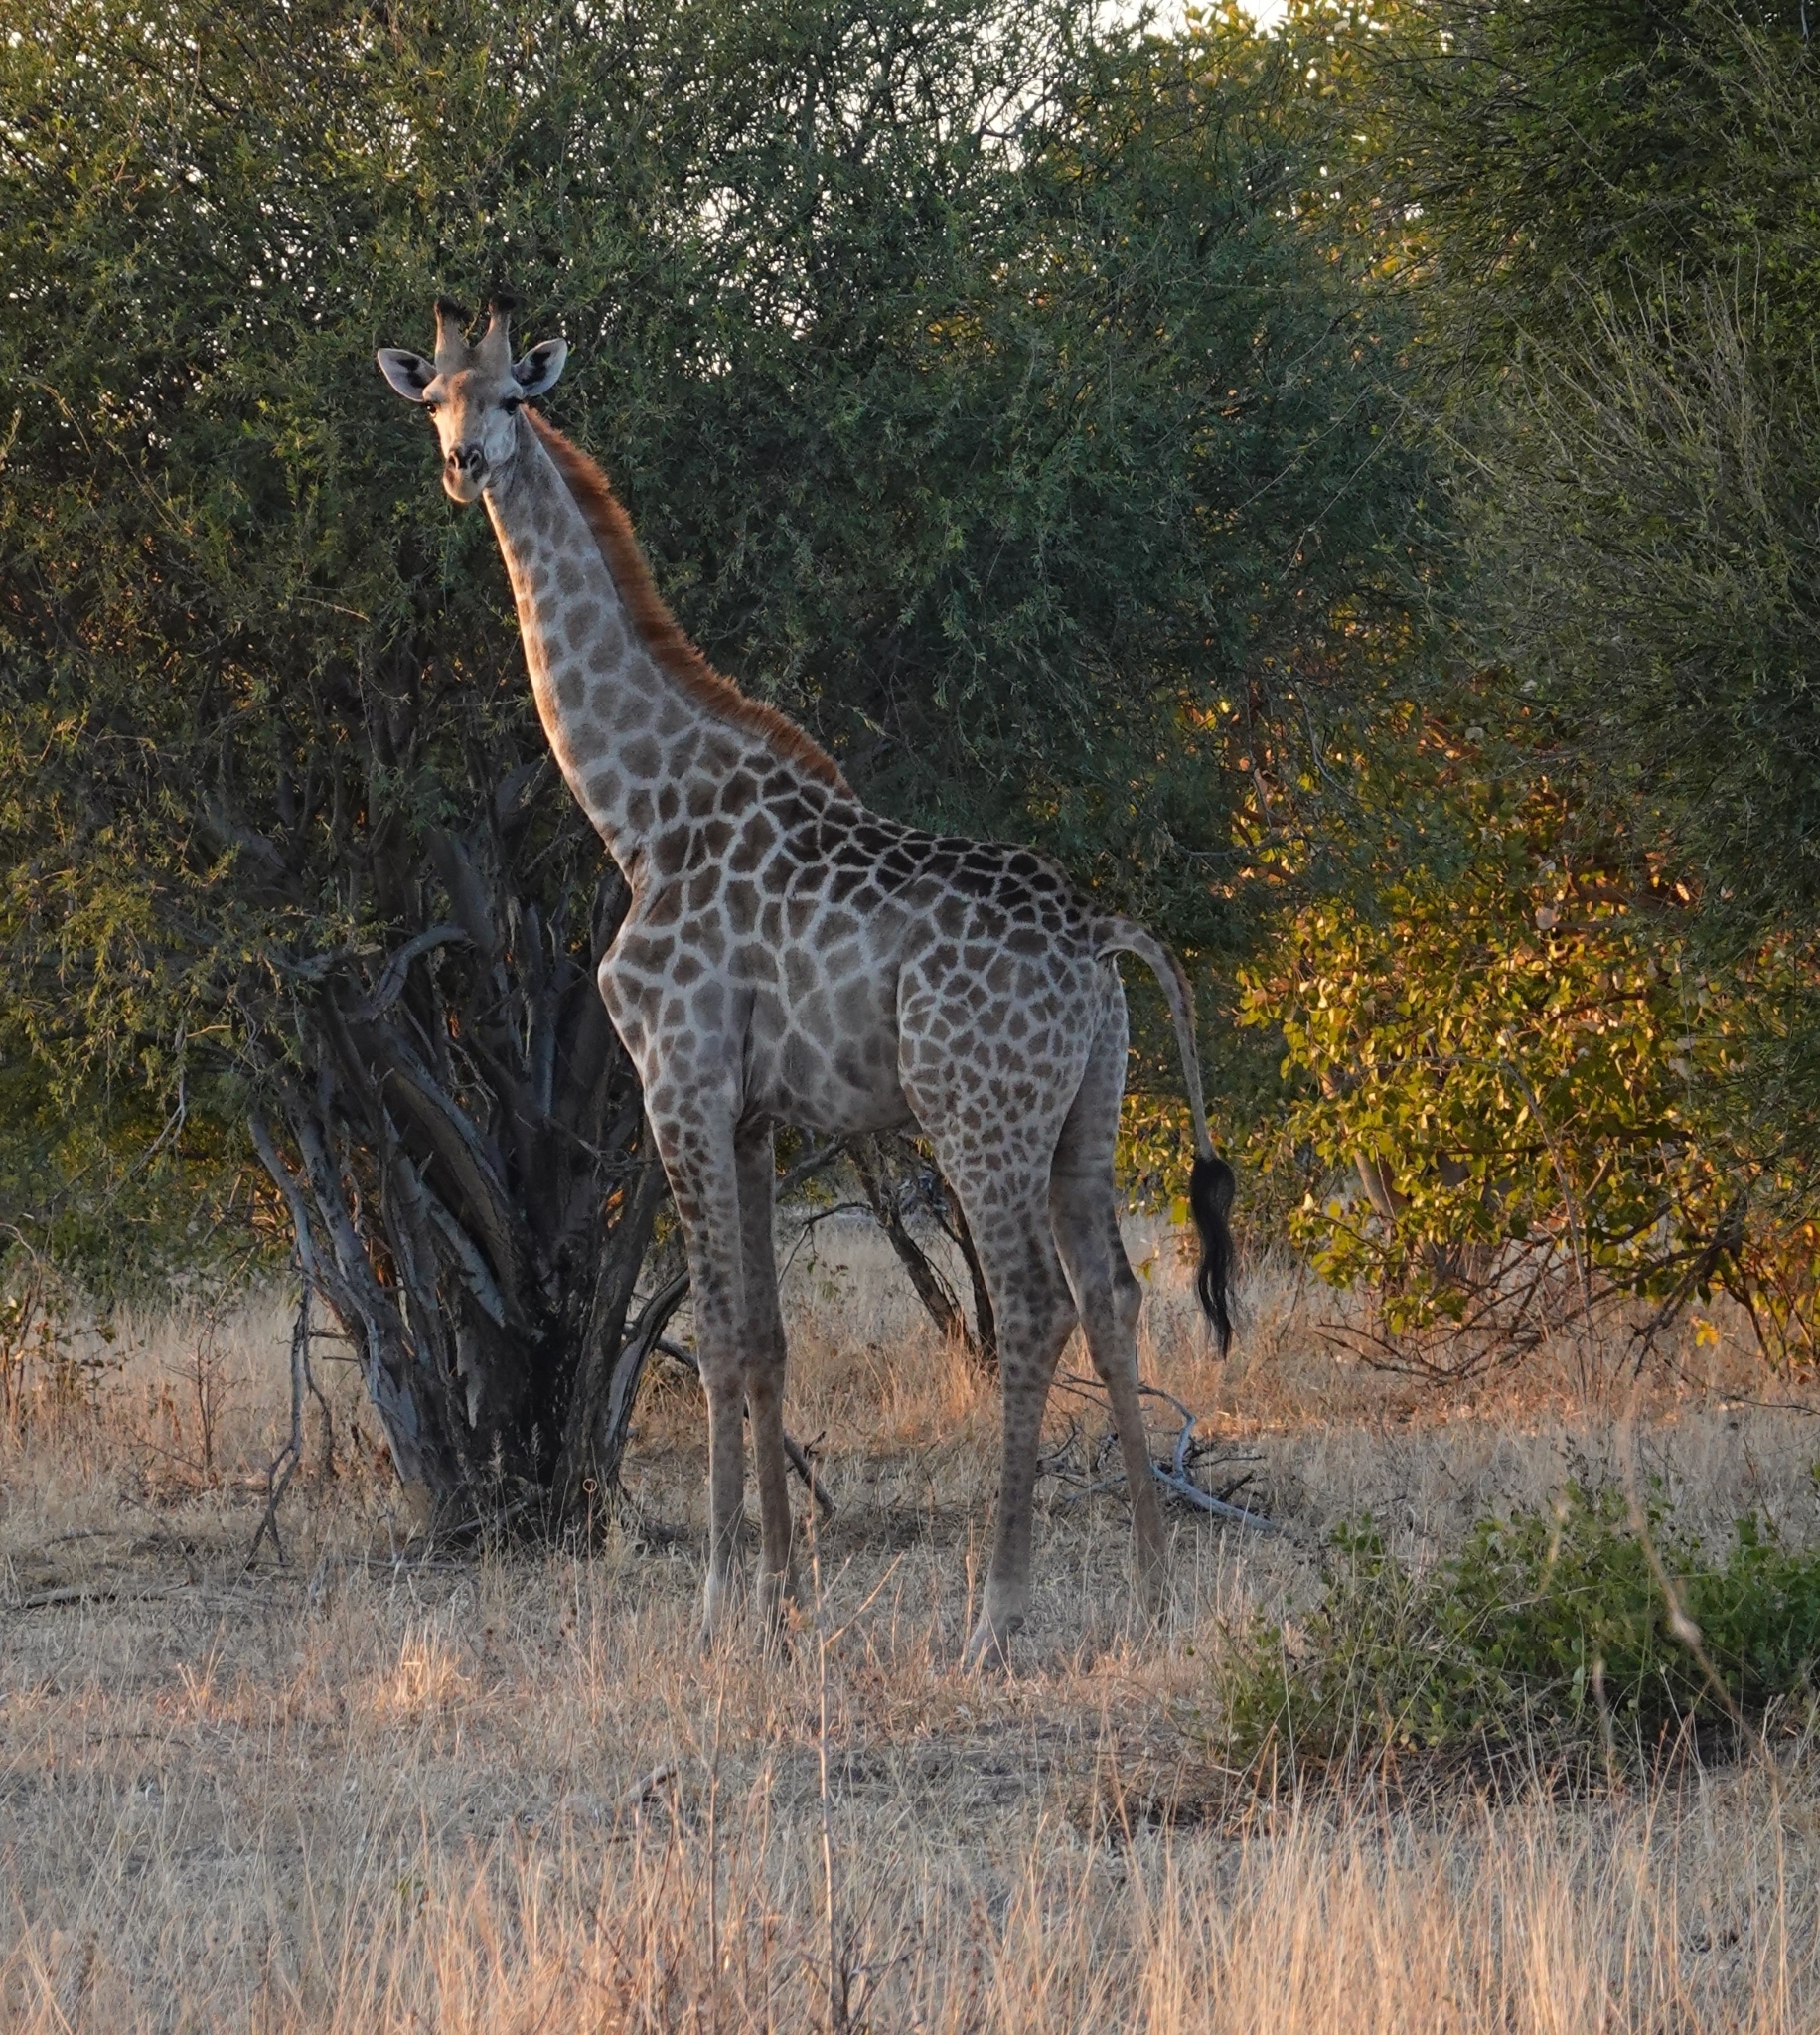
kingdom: Animalia
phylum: Chordata
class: Mammalia
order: Artiodactyla
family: Giraffidae
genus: Giraffa
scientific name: Giraffa giraffa
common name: Southern giraffe
